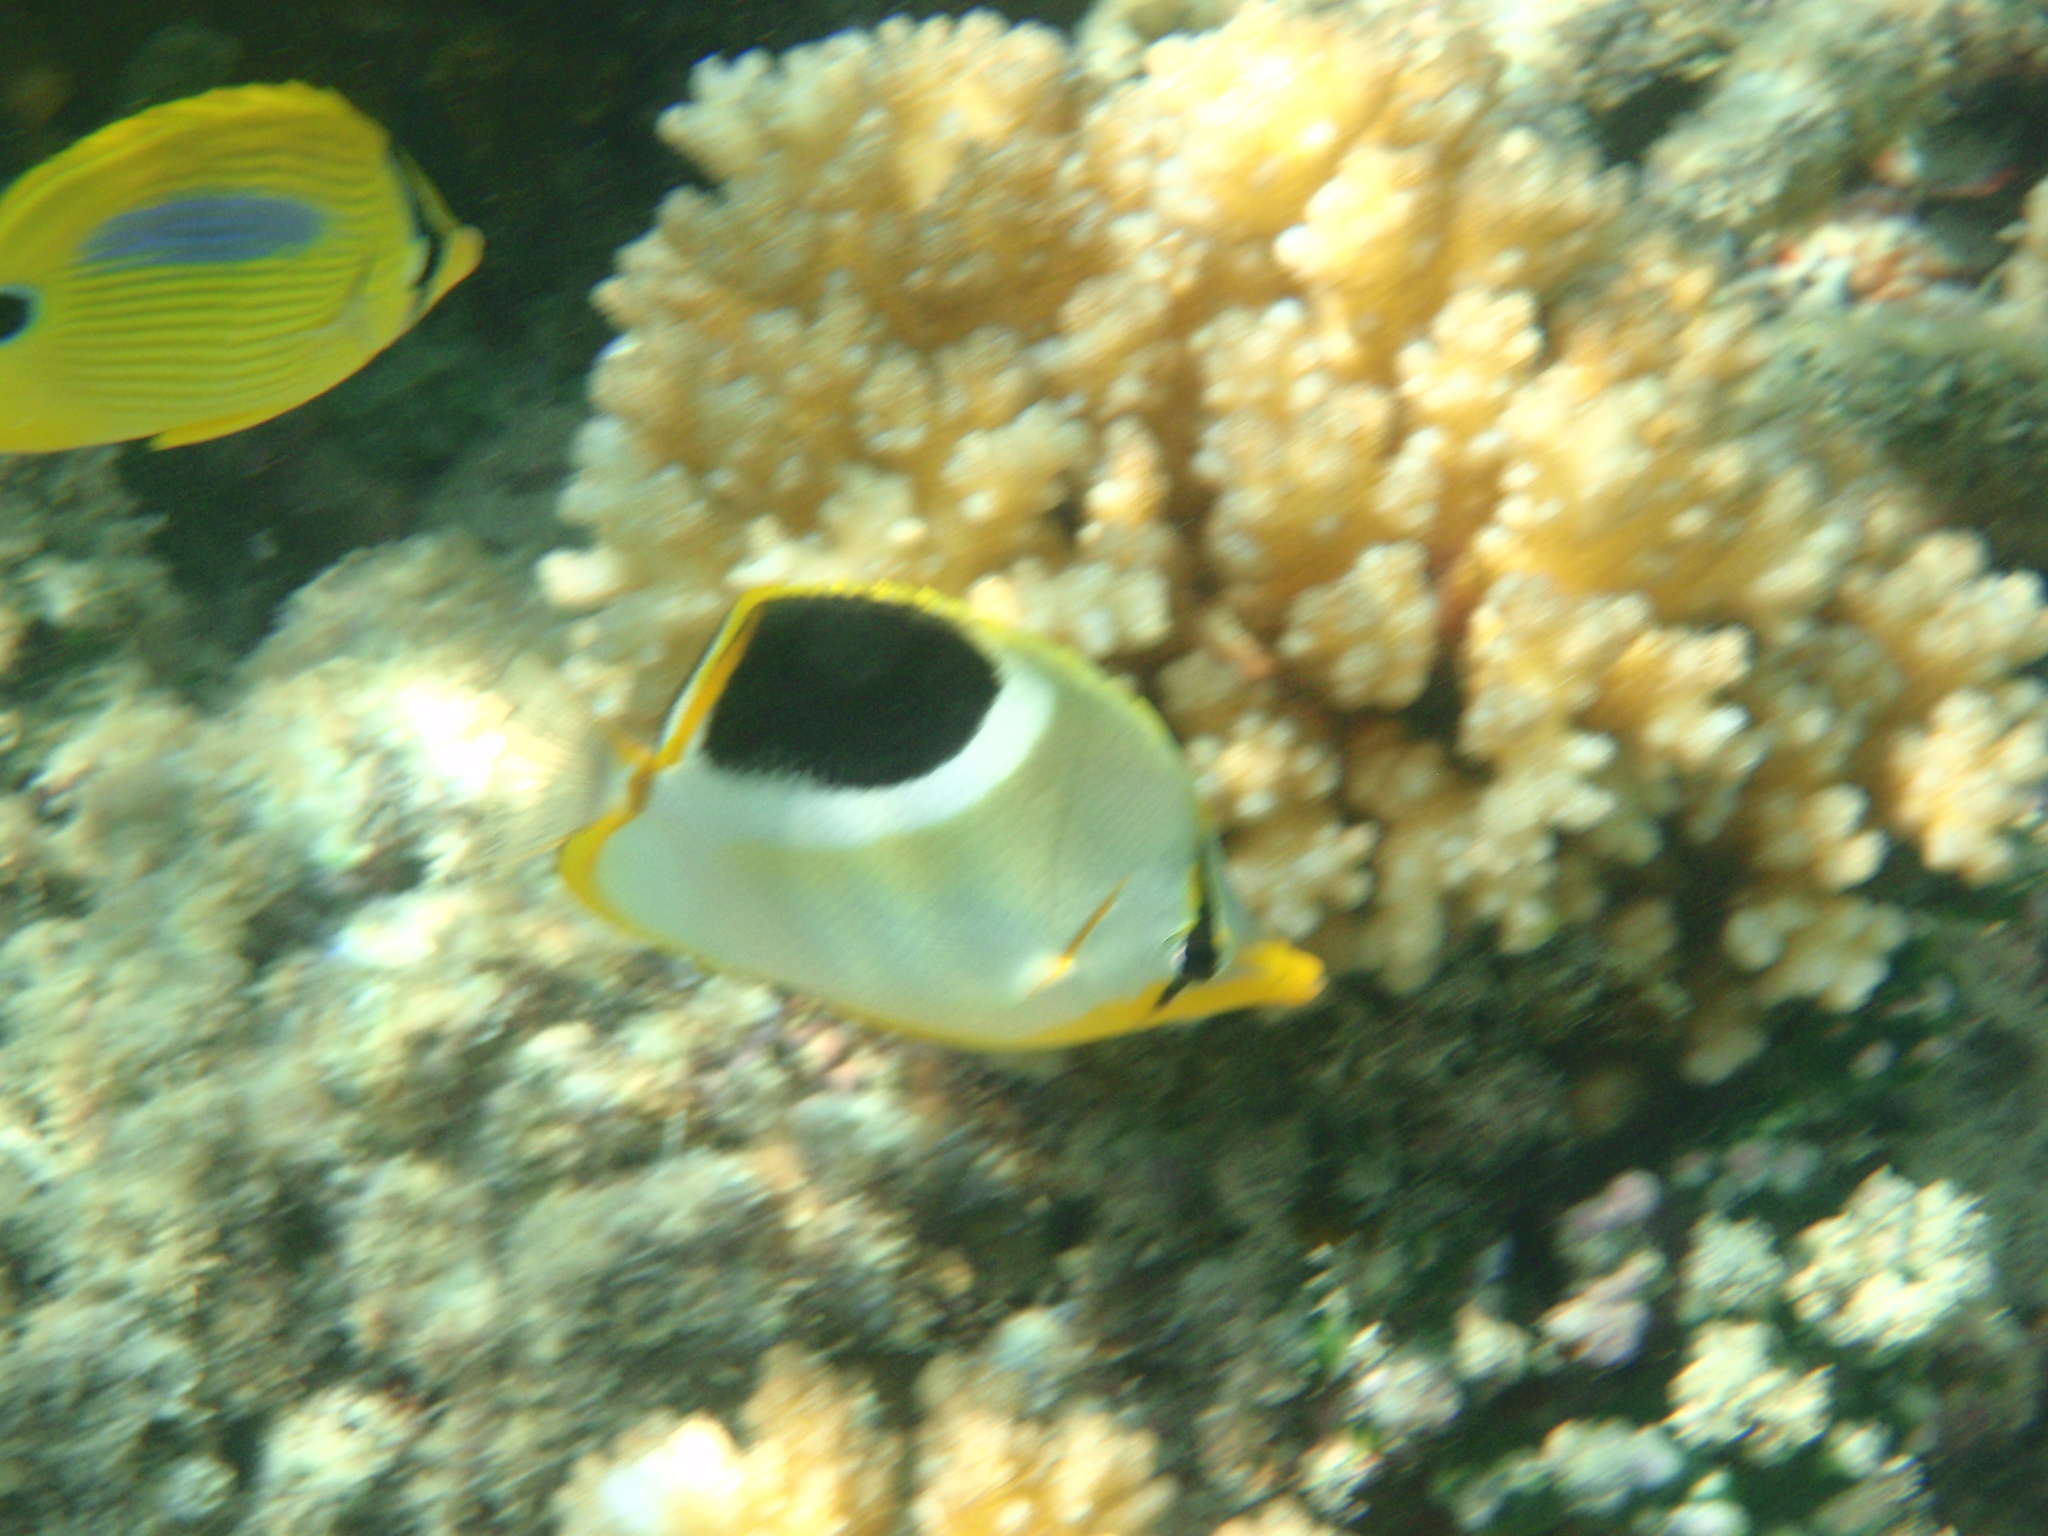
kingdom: Animalia
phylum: Chordata
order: Perciformes
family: Chaetodontidae
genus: Chaetodon
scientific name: Chaetodon ephippium
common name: Saddled butterflyfish
